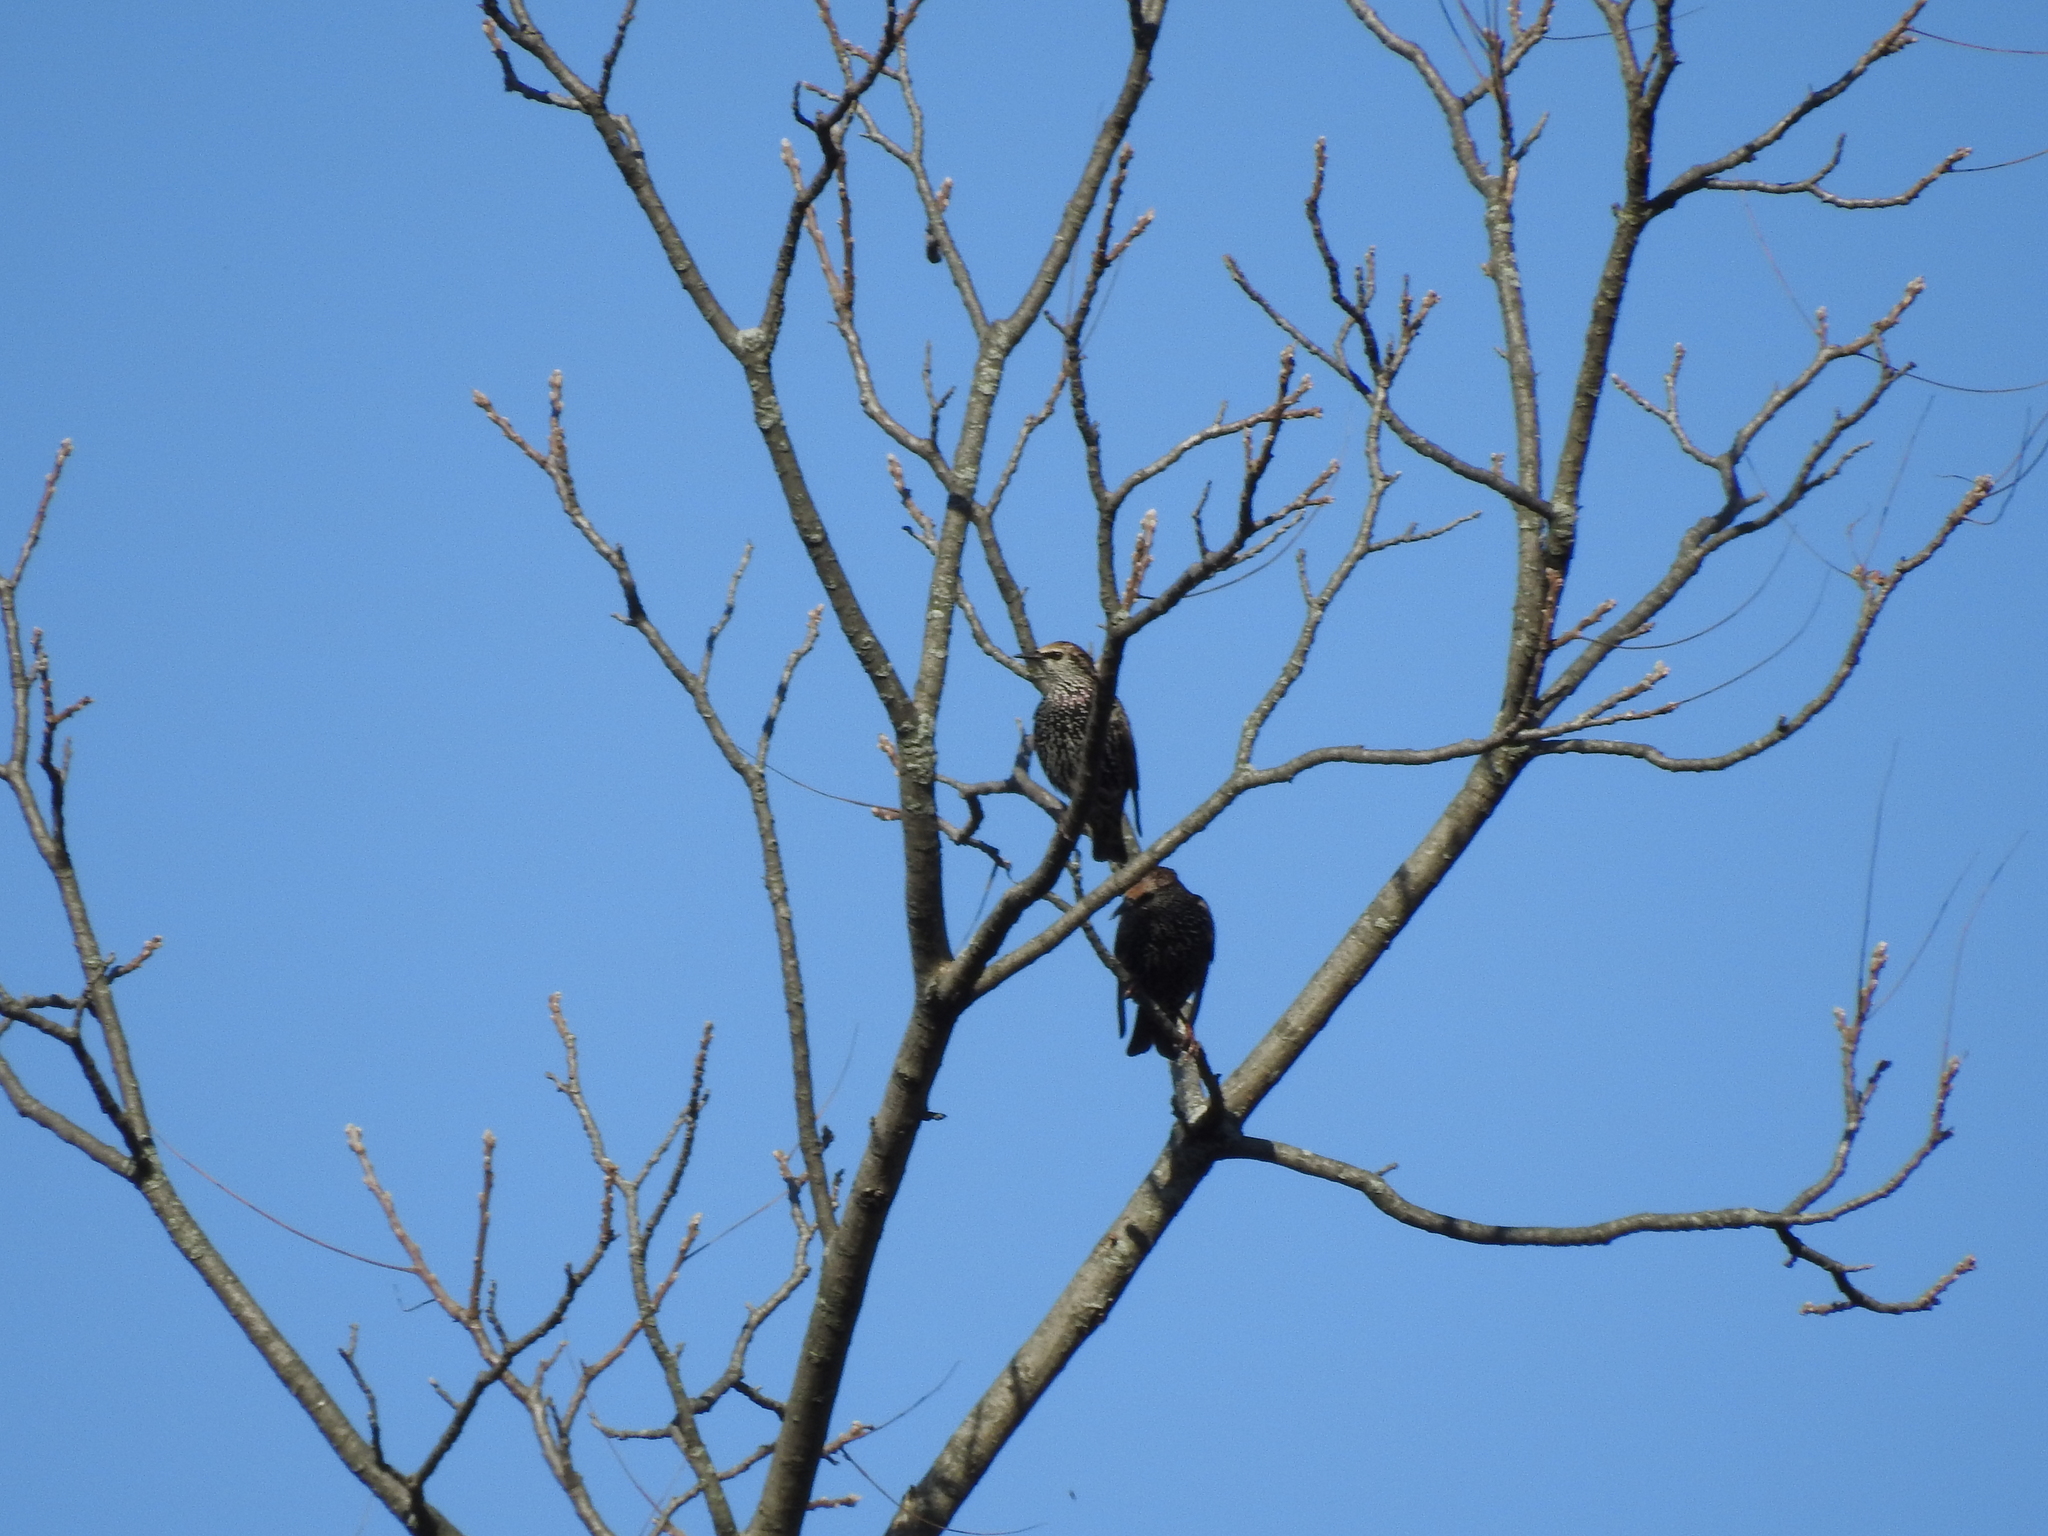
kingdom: Animalia
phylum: Chordata
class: Aves
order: Passeriformes
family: Sturnidae
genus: Sturnus
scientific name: Sturnus vulgaris
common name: Common starling
